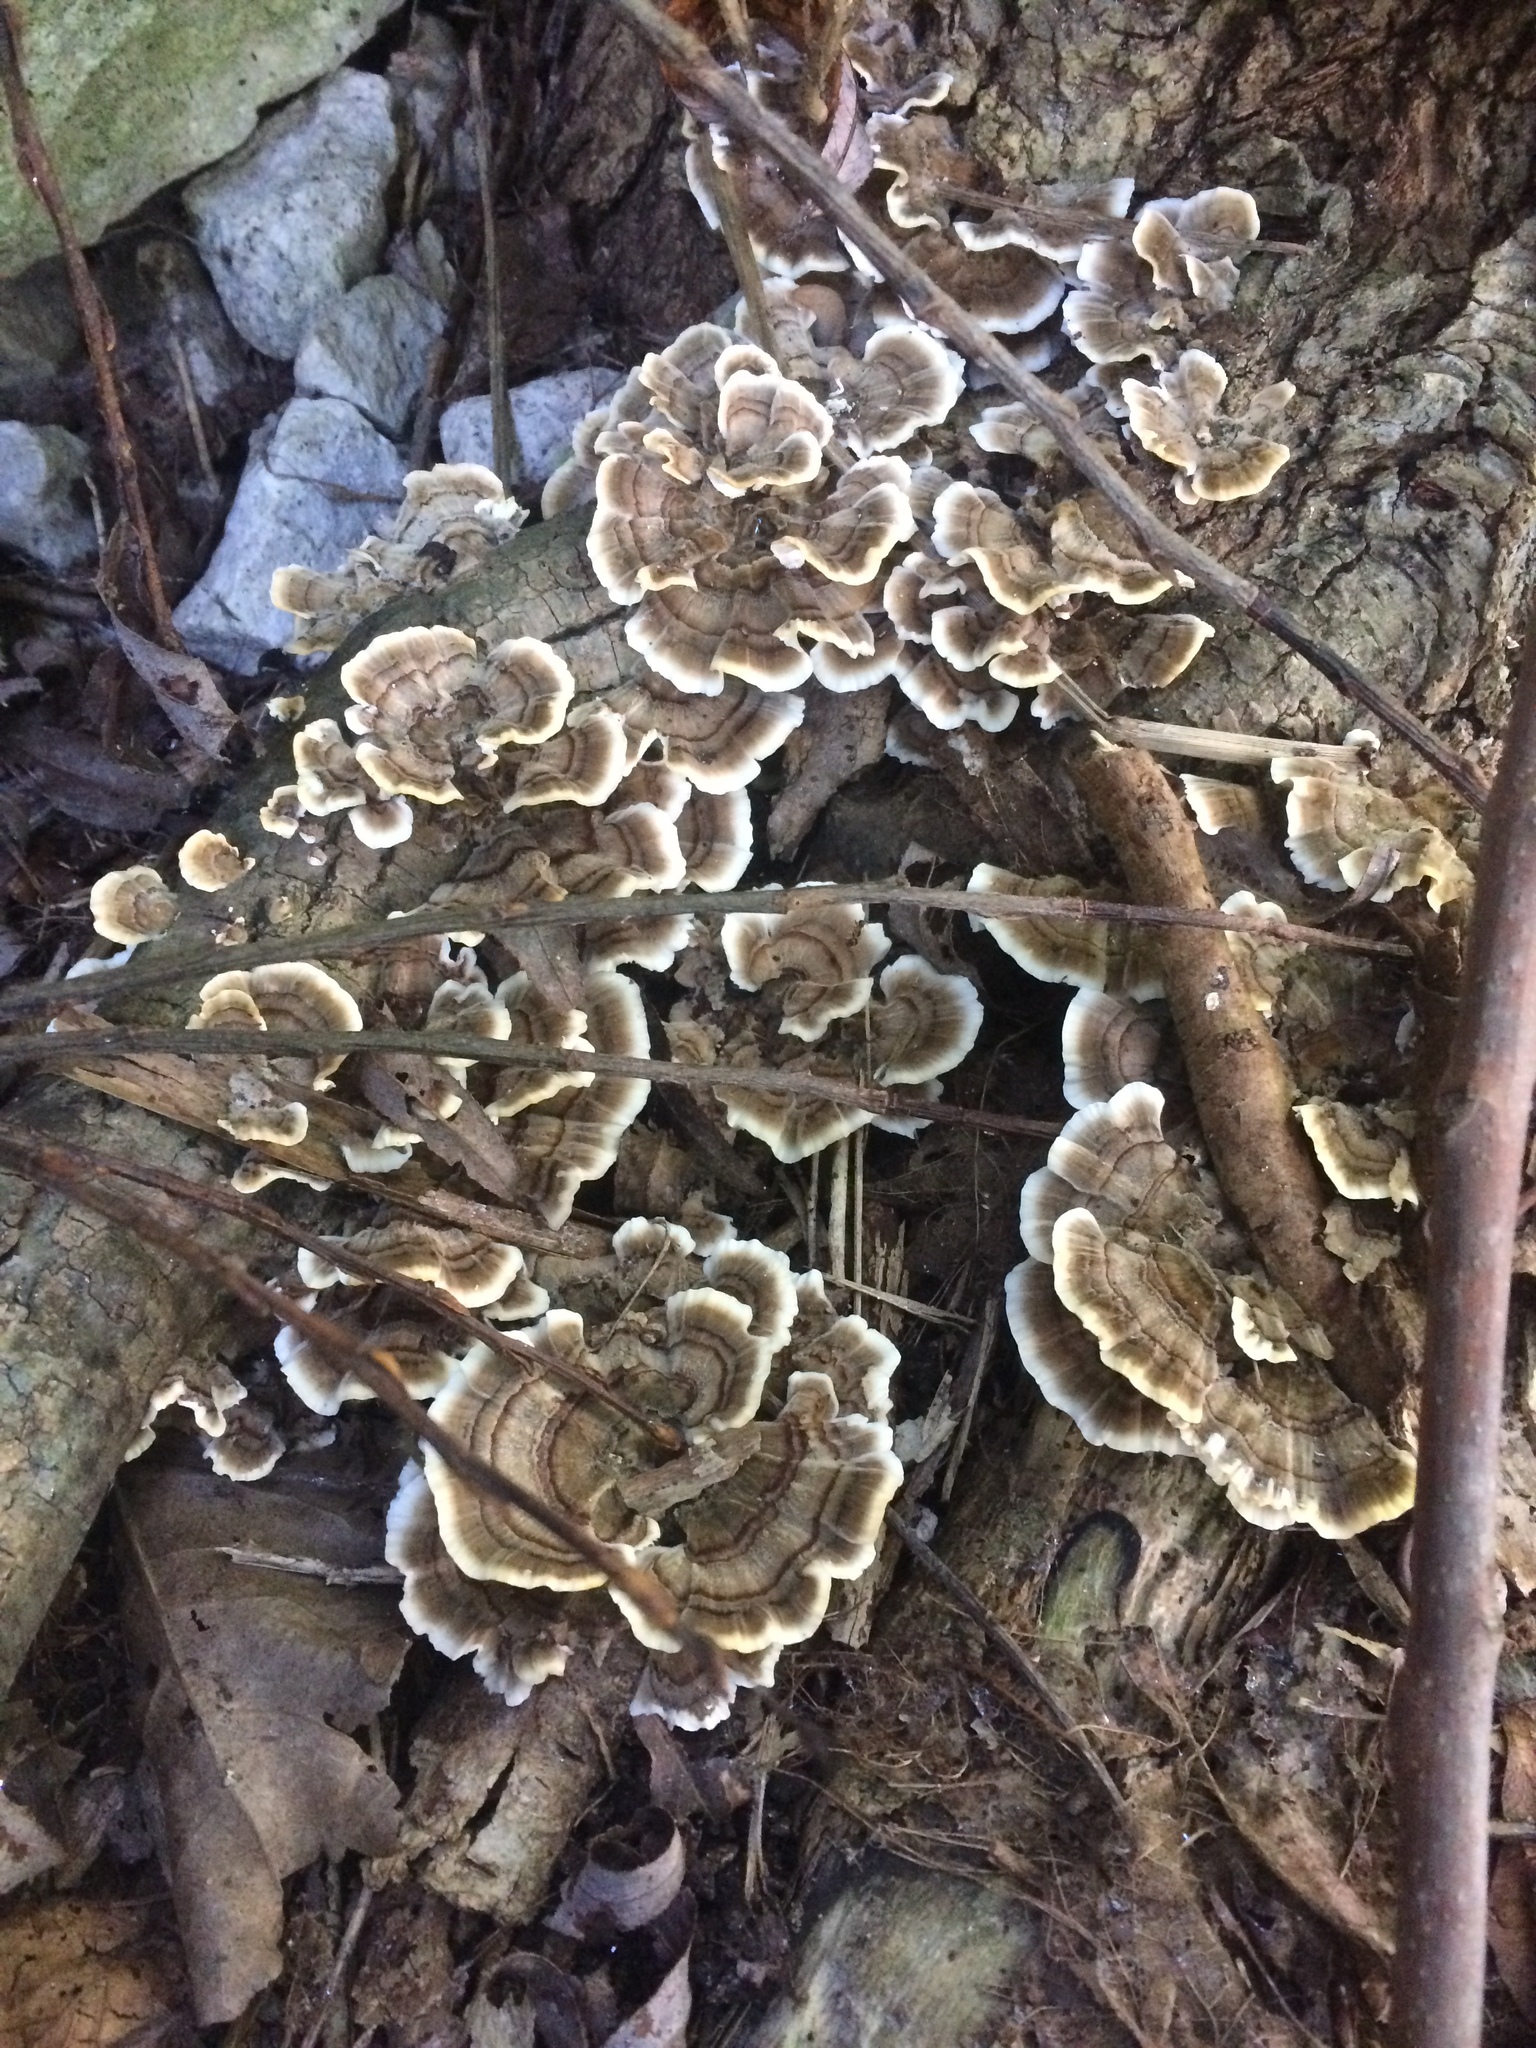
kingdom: Fungi
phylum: Basidiomycota
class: Agaricomycetes
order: Polyporales
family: Polyporaceae
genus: Trametes
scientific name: Trametes versicolor
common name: Turkeytail
